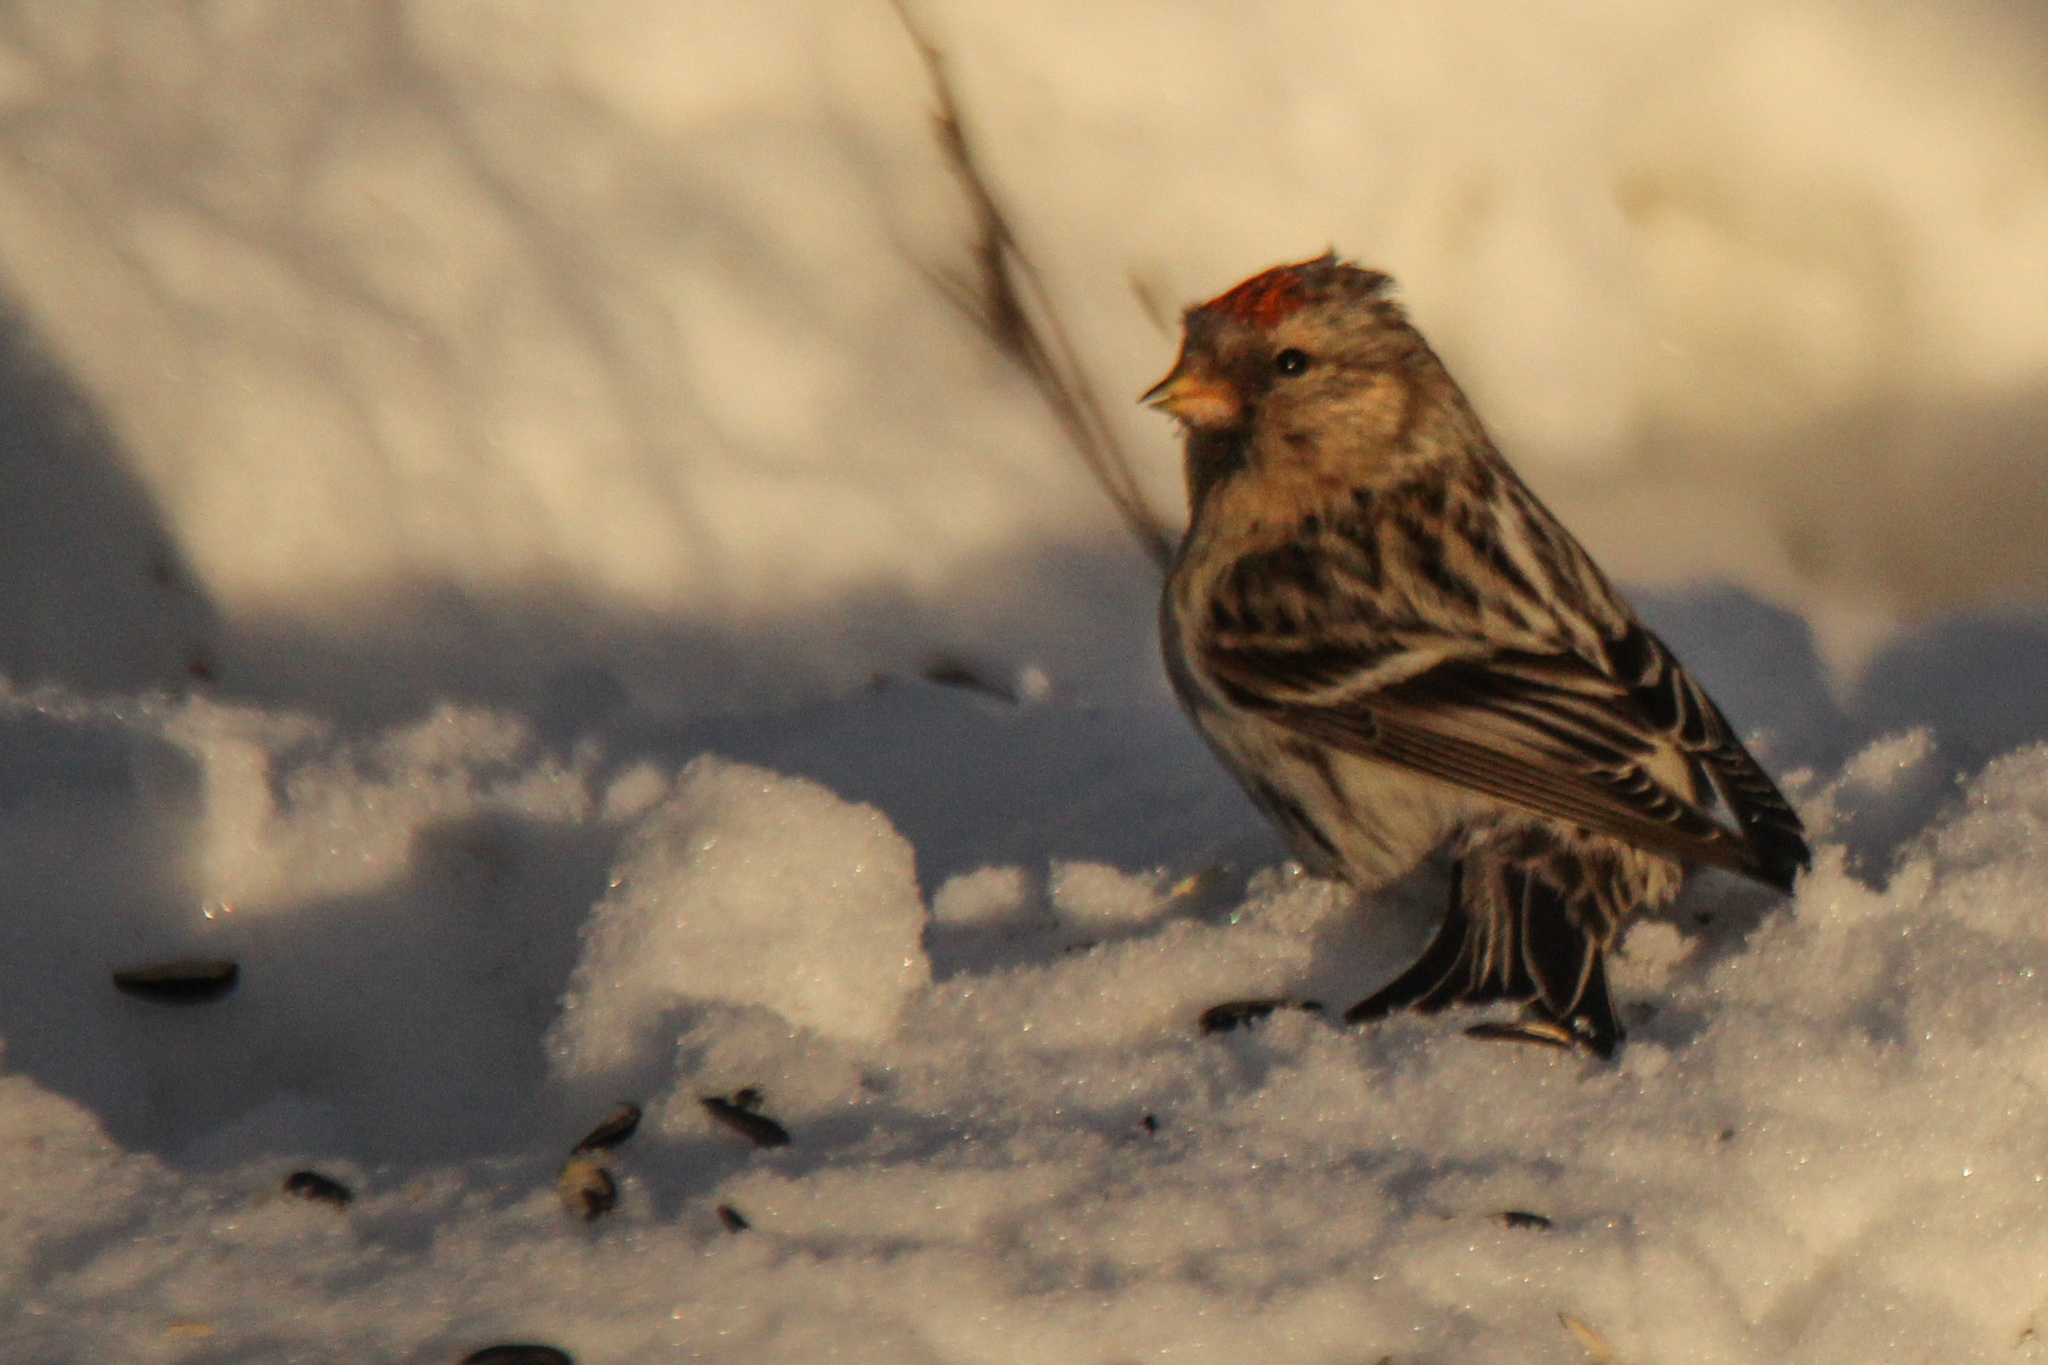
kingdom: Animalia
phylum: Chordata
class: Aves
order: Passeriformes
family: Fringillidae
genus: Acanthis
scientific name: Acanthis flammea
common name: Common redpoll
